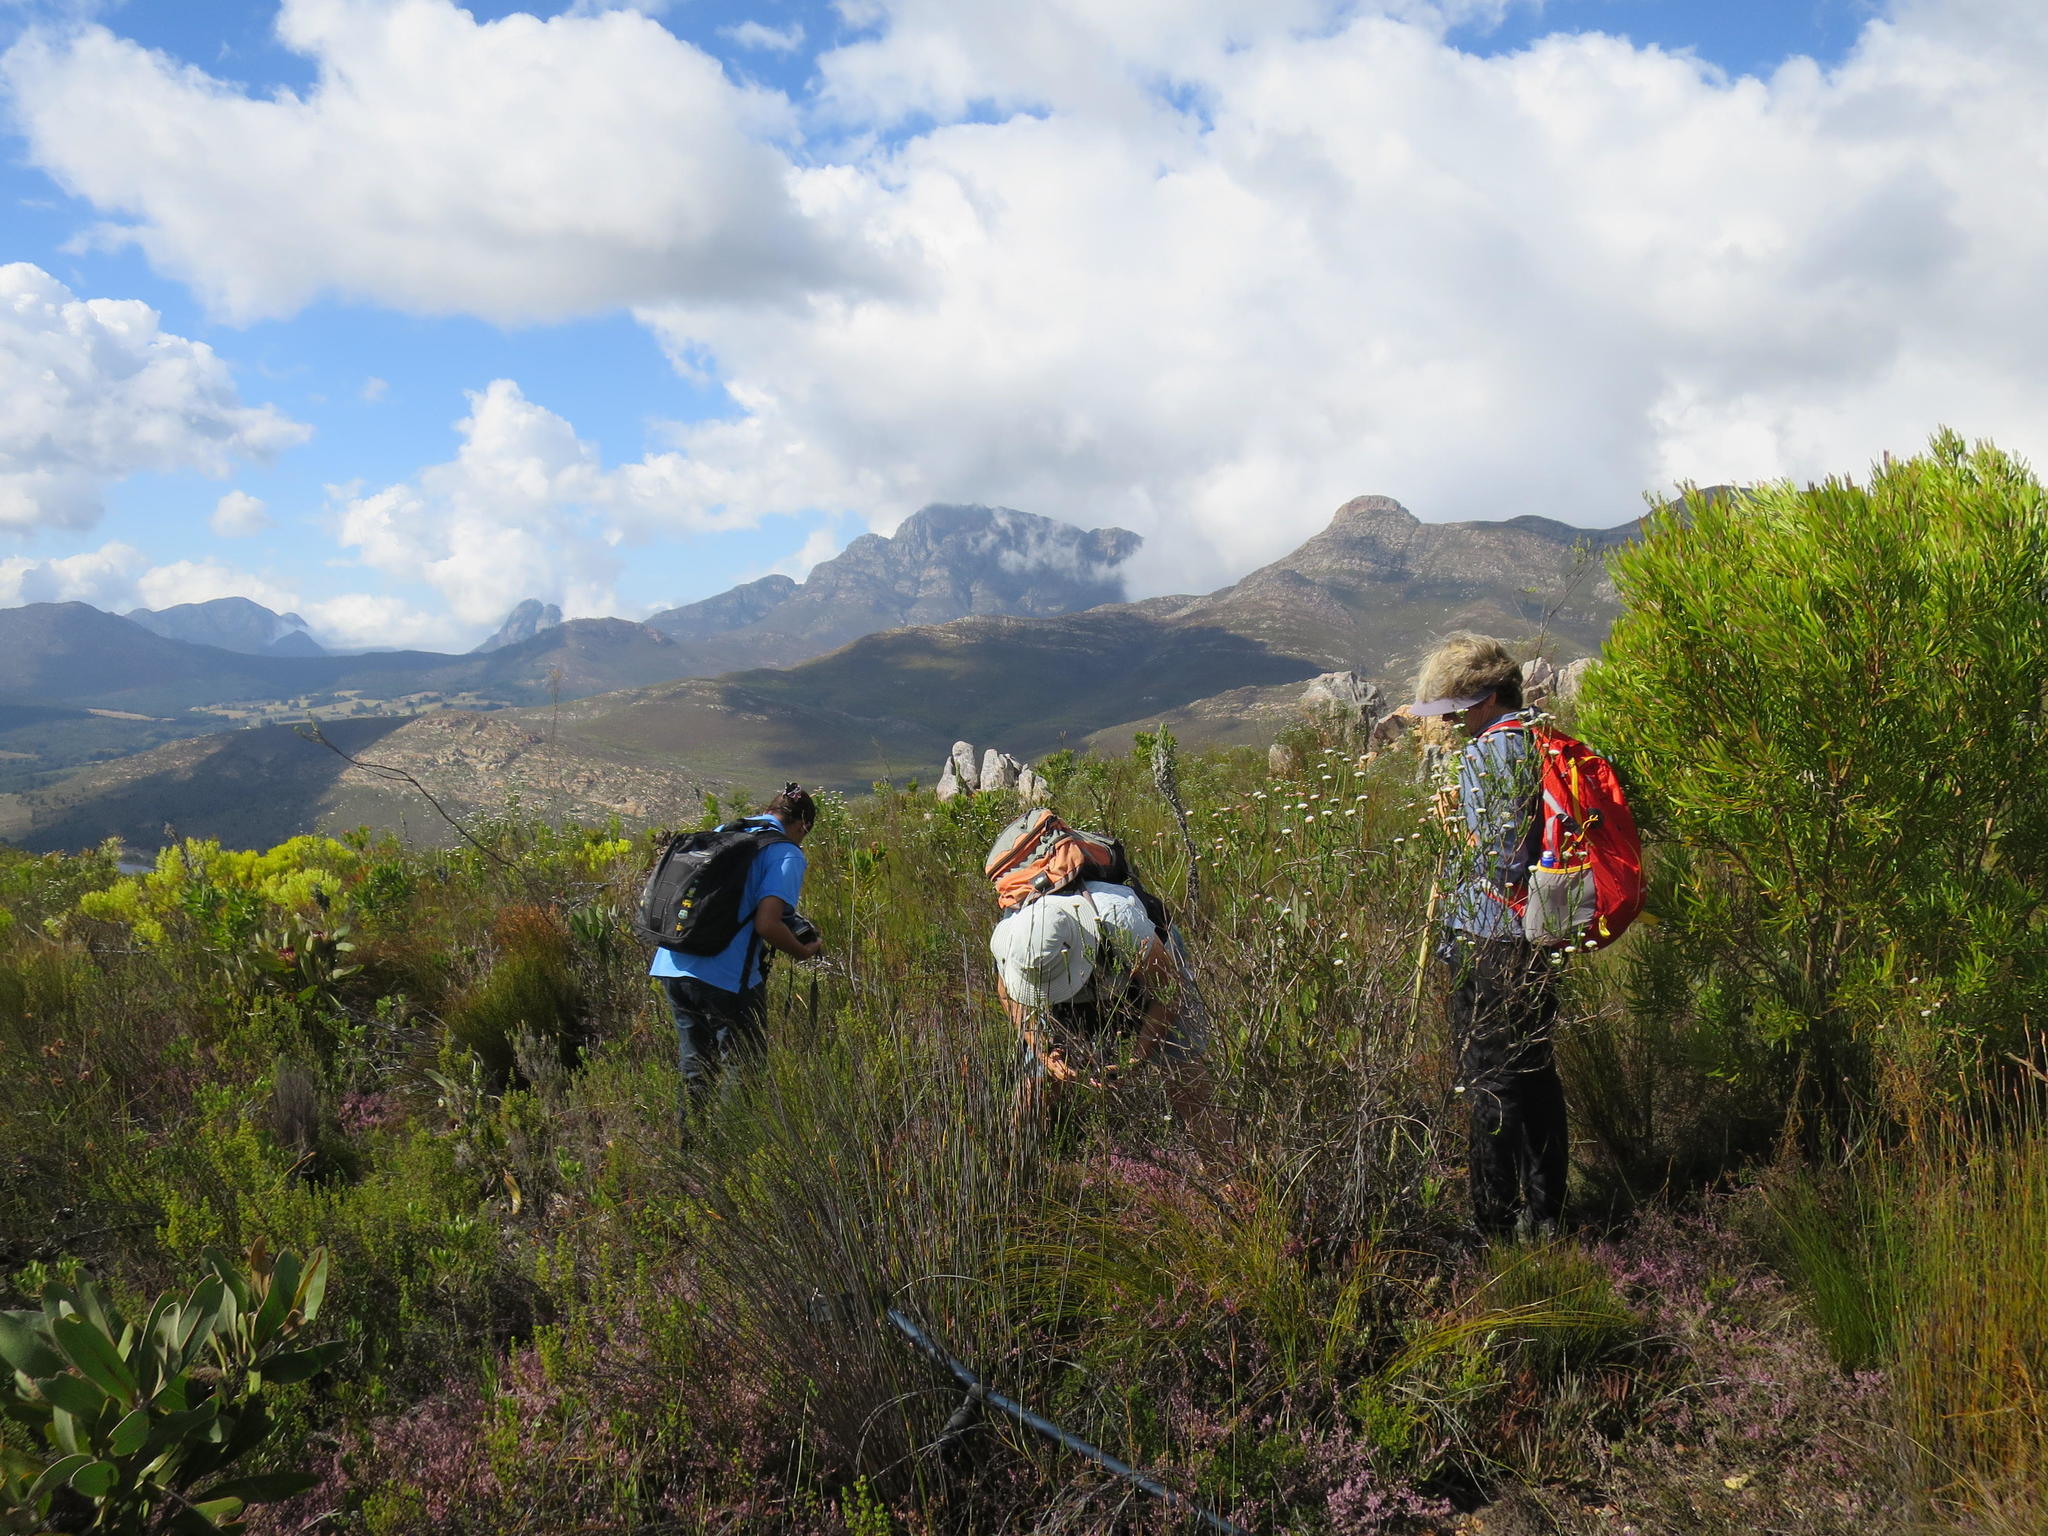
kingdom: Plantae
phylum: Tracheophyta
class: Magnoliopsida
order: Proteales
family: Proteaceae
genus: Leucadendron
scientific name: Leucadendron eucalyptifolium
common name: Gum-leaved conebush
